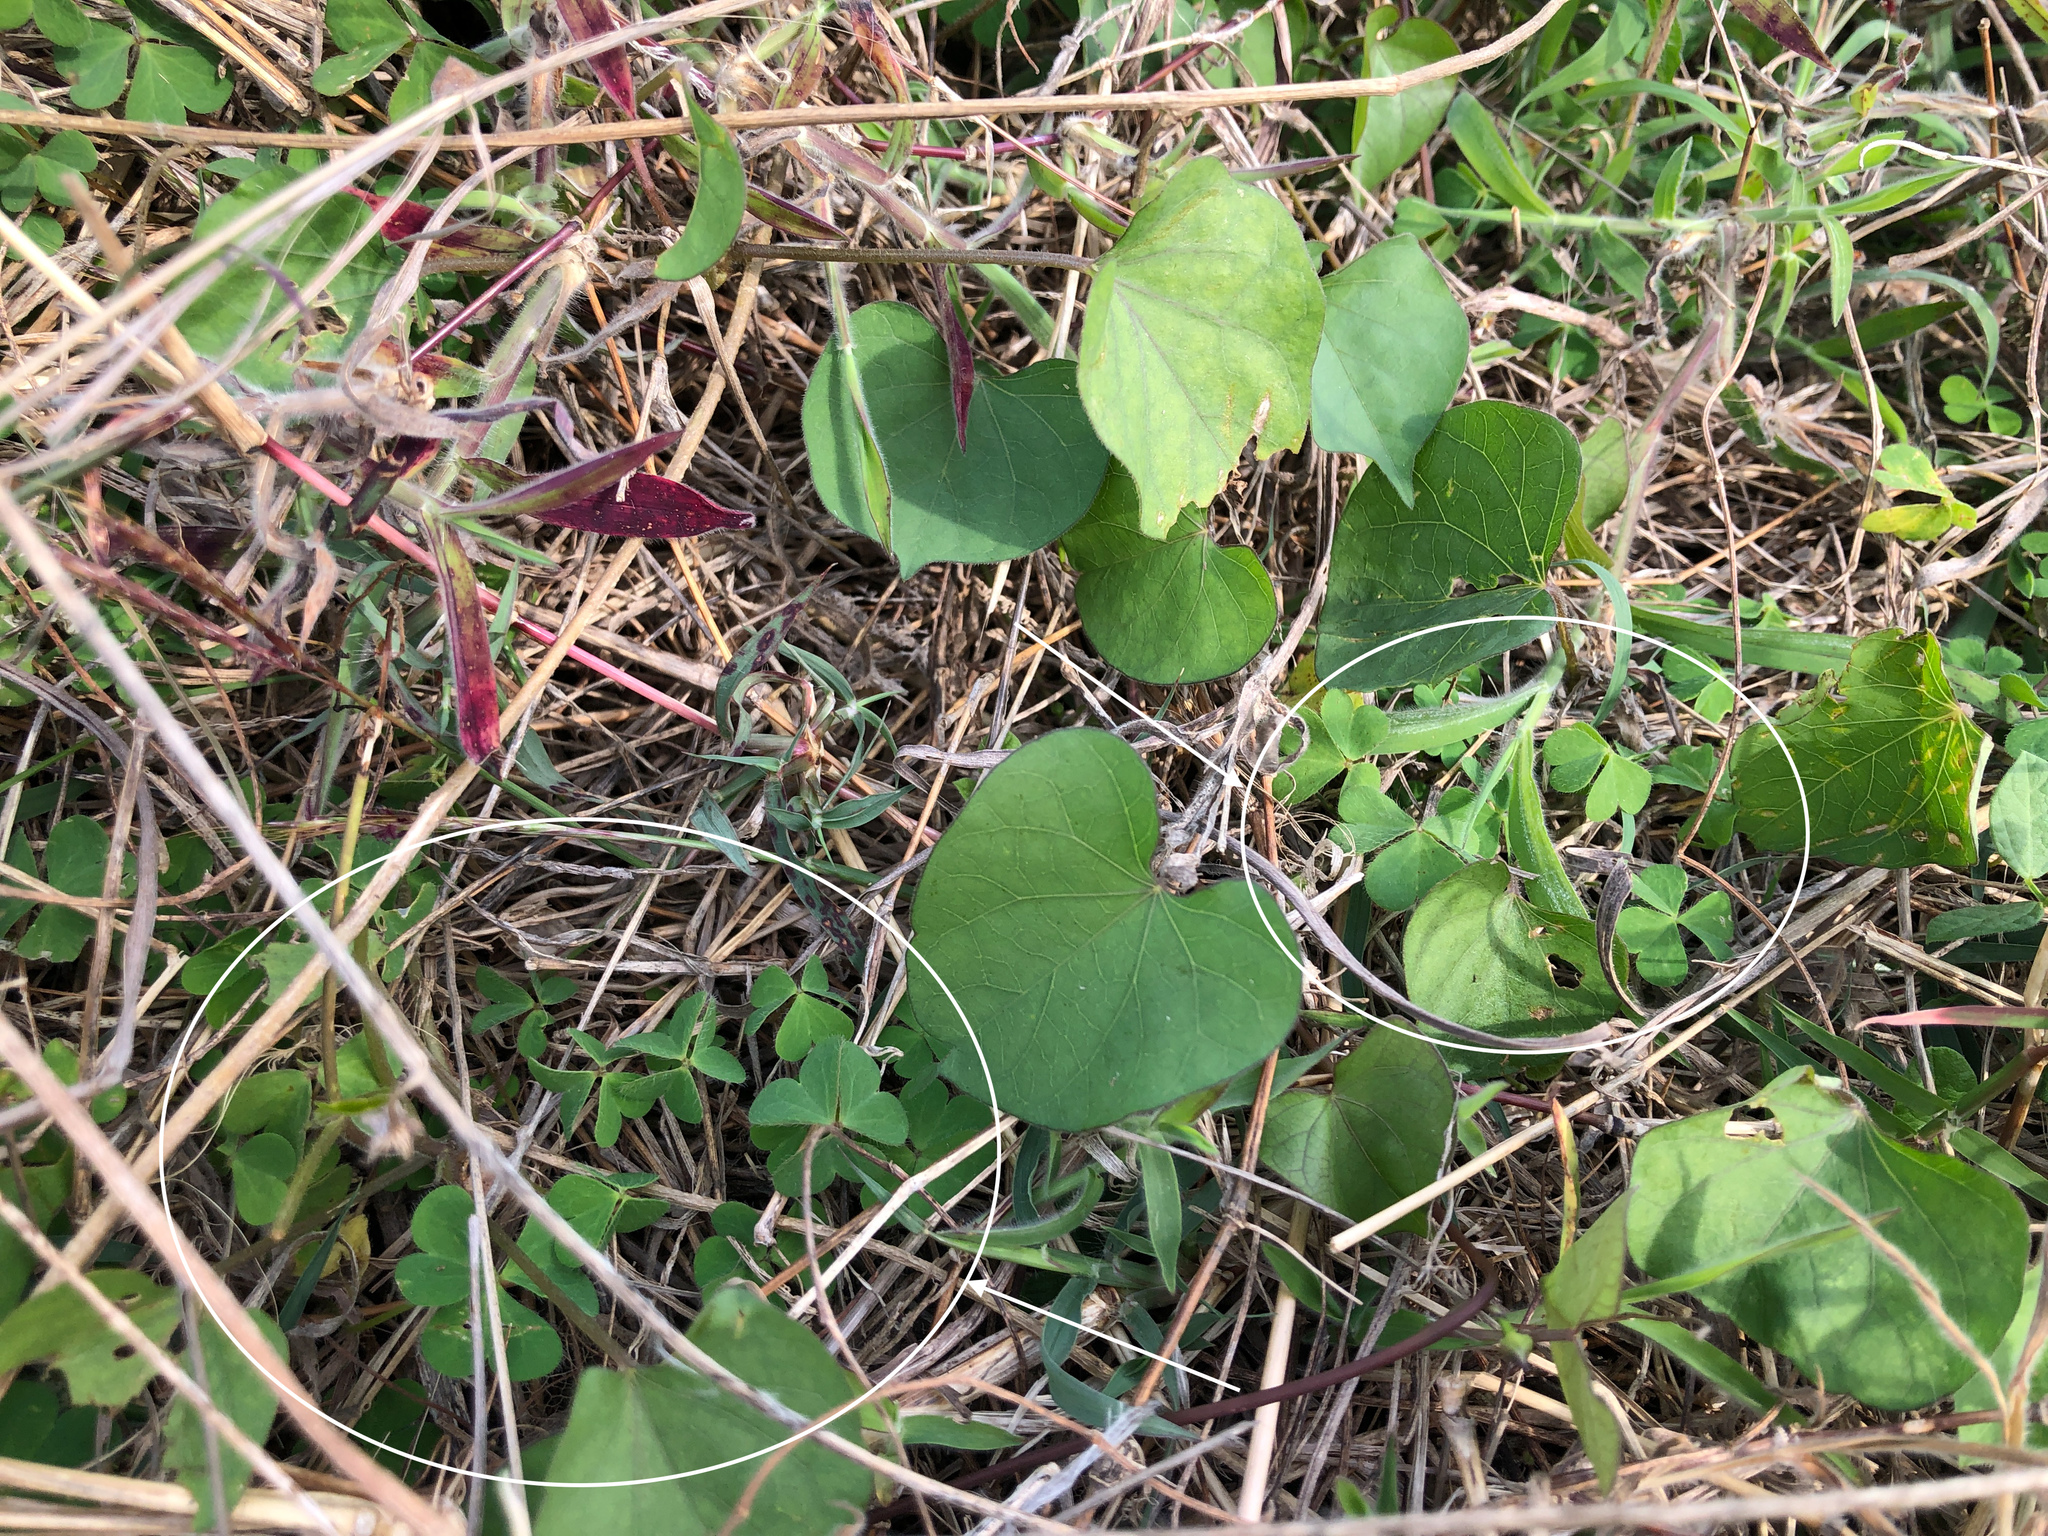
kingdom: Plantae
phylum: Tracheophyta
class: Magnoliopsida
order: Oxalidales
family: Oxalidaceae
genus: Oxalis
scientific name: Oxalis corniculata
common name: Procumbent yellow-sorrel
